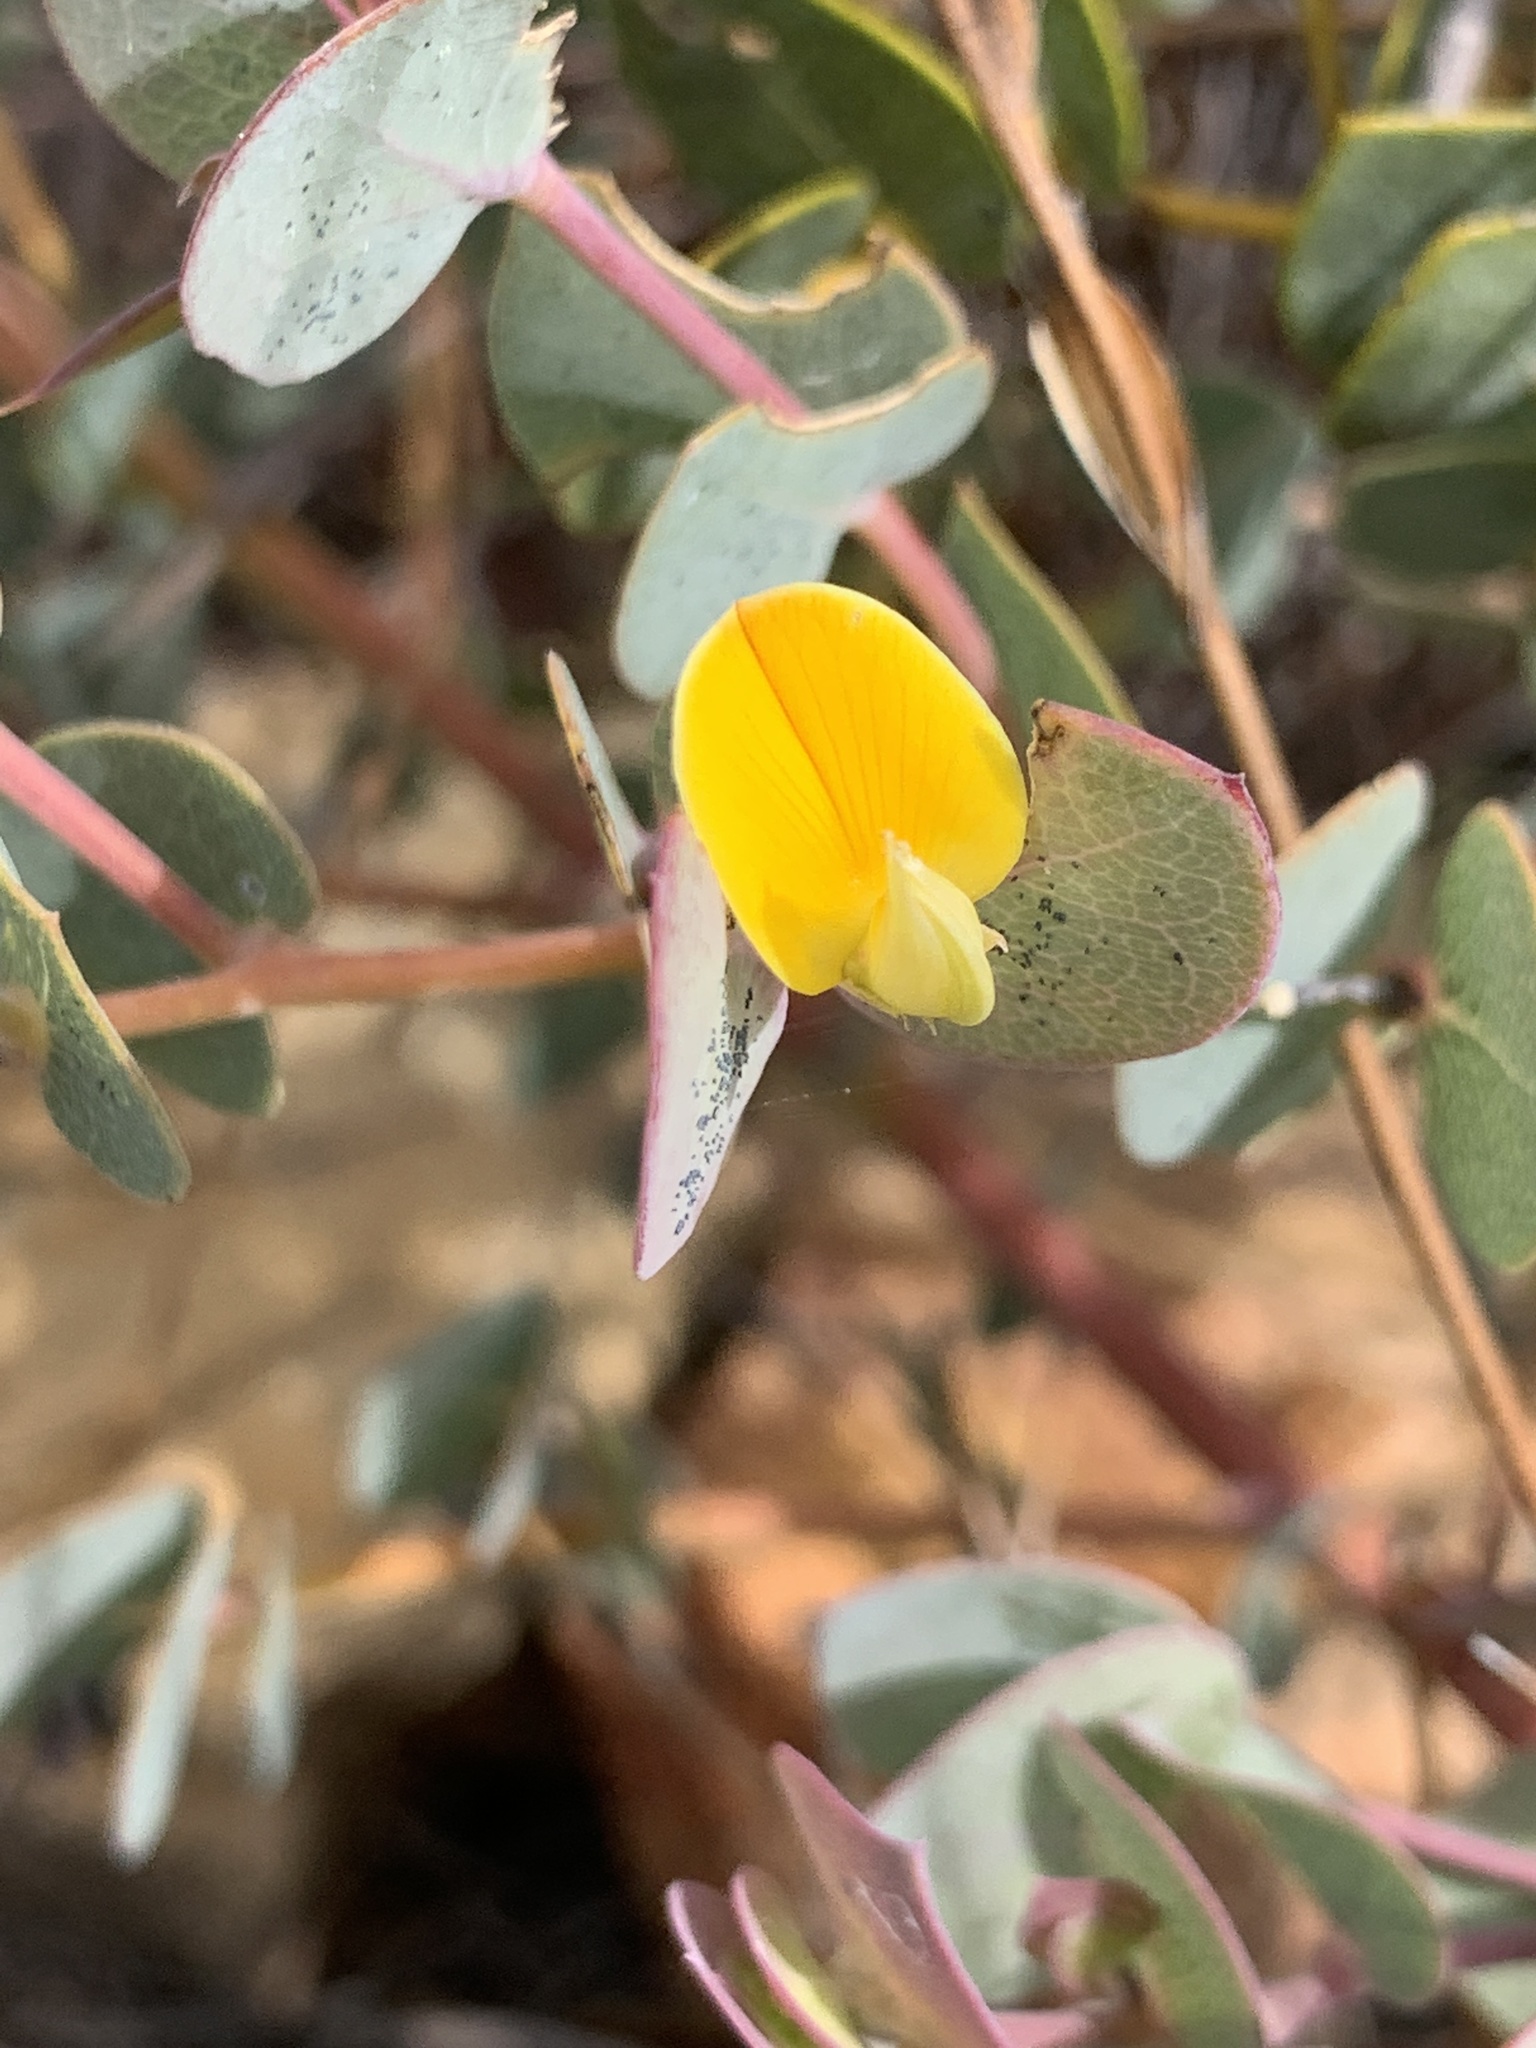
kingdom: Plantae
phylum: Tracheophyta
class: Magnoliopsida
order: Fabales
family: Fabaceae
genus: Rafnia
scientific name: Rafnia acuminata
